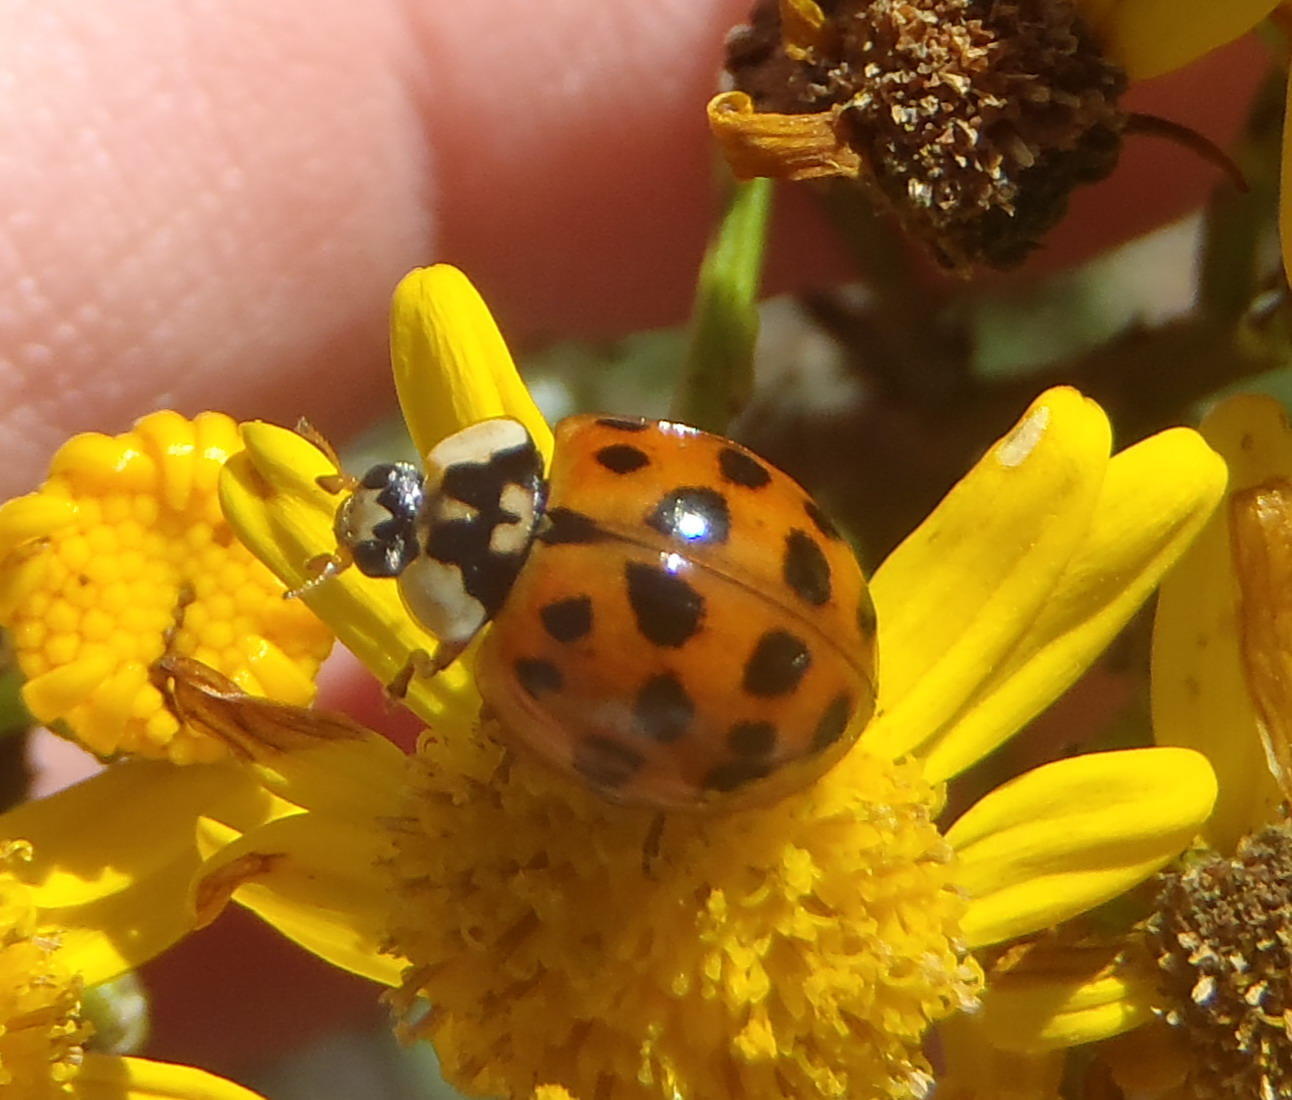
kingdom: Animalia
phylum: Arthropoda
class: Insecta
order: Coleoptera
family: Coccinellidae
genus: Harmonia
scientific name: Harmonia axyridis
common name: Harlequin ladybird
